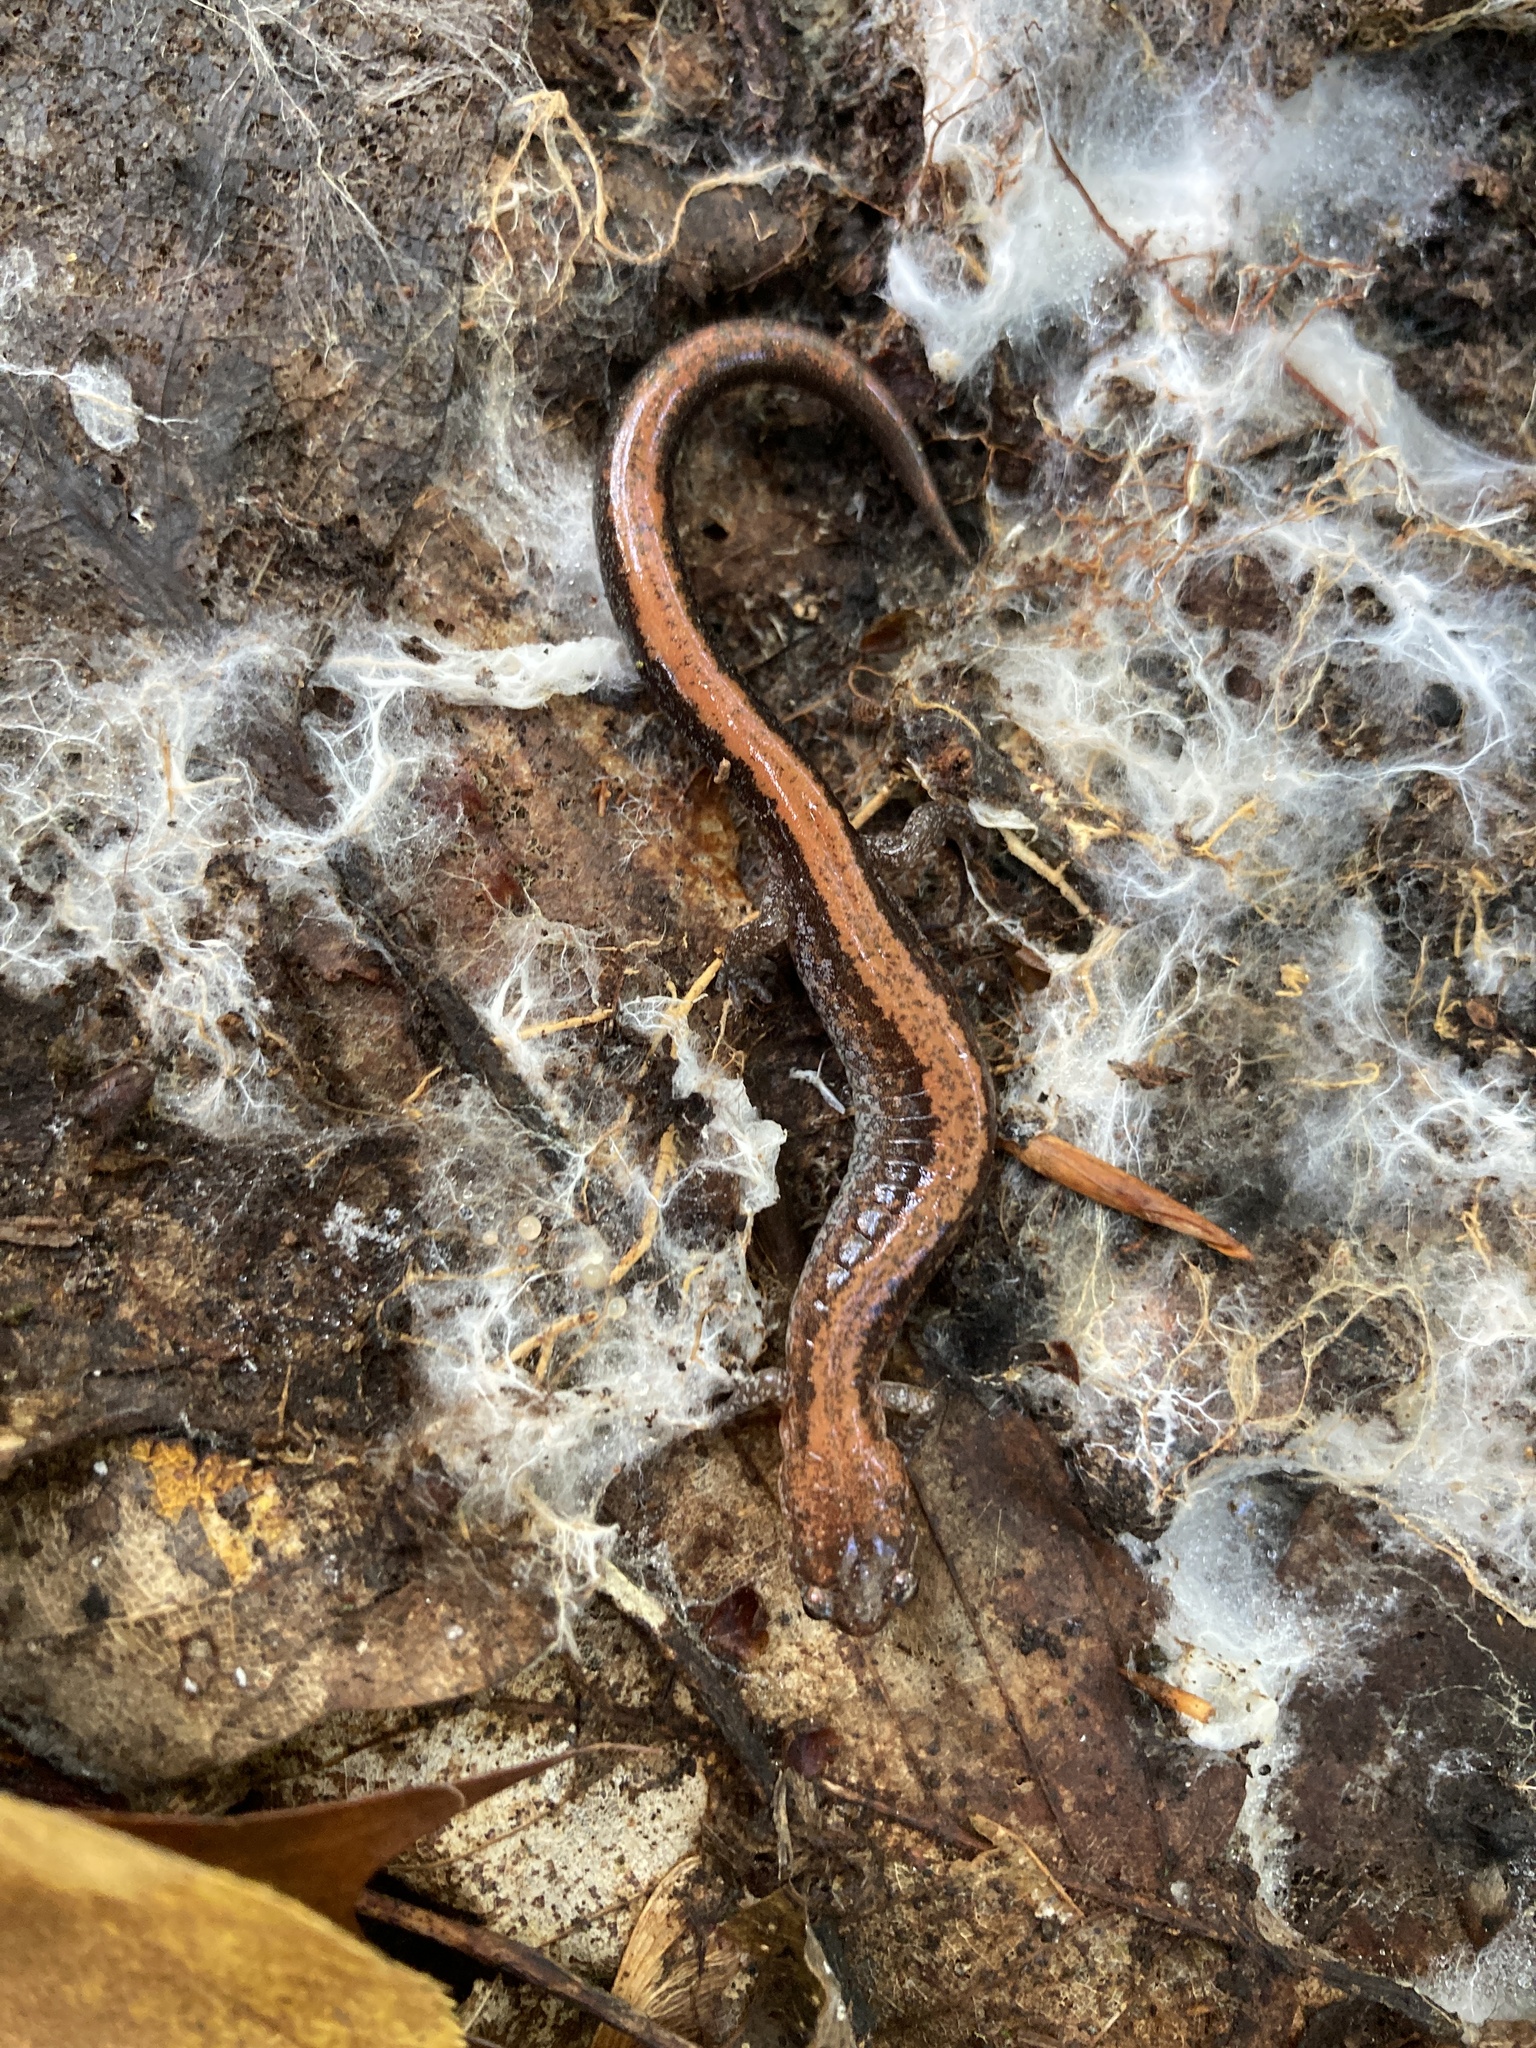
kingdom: Animalia
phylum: Chordata
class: Amphibia
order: Caudata
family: Plethodontidae
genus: Plethodon
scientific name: Plethodon cinereus
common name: Redback salamander
